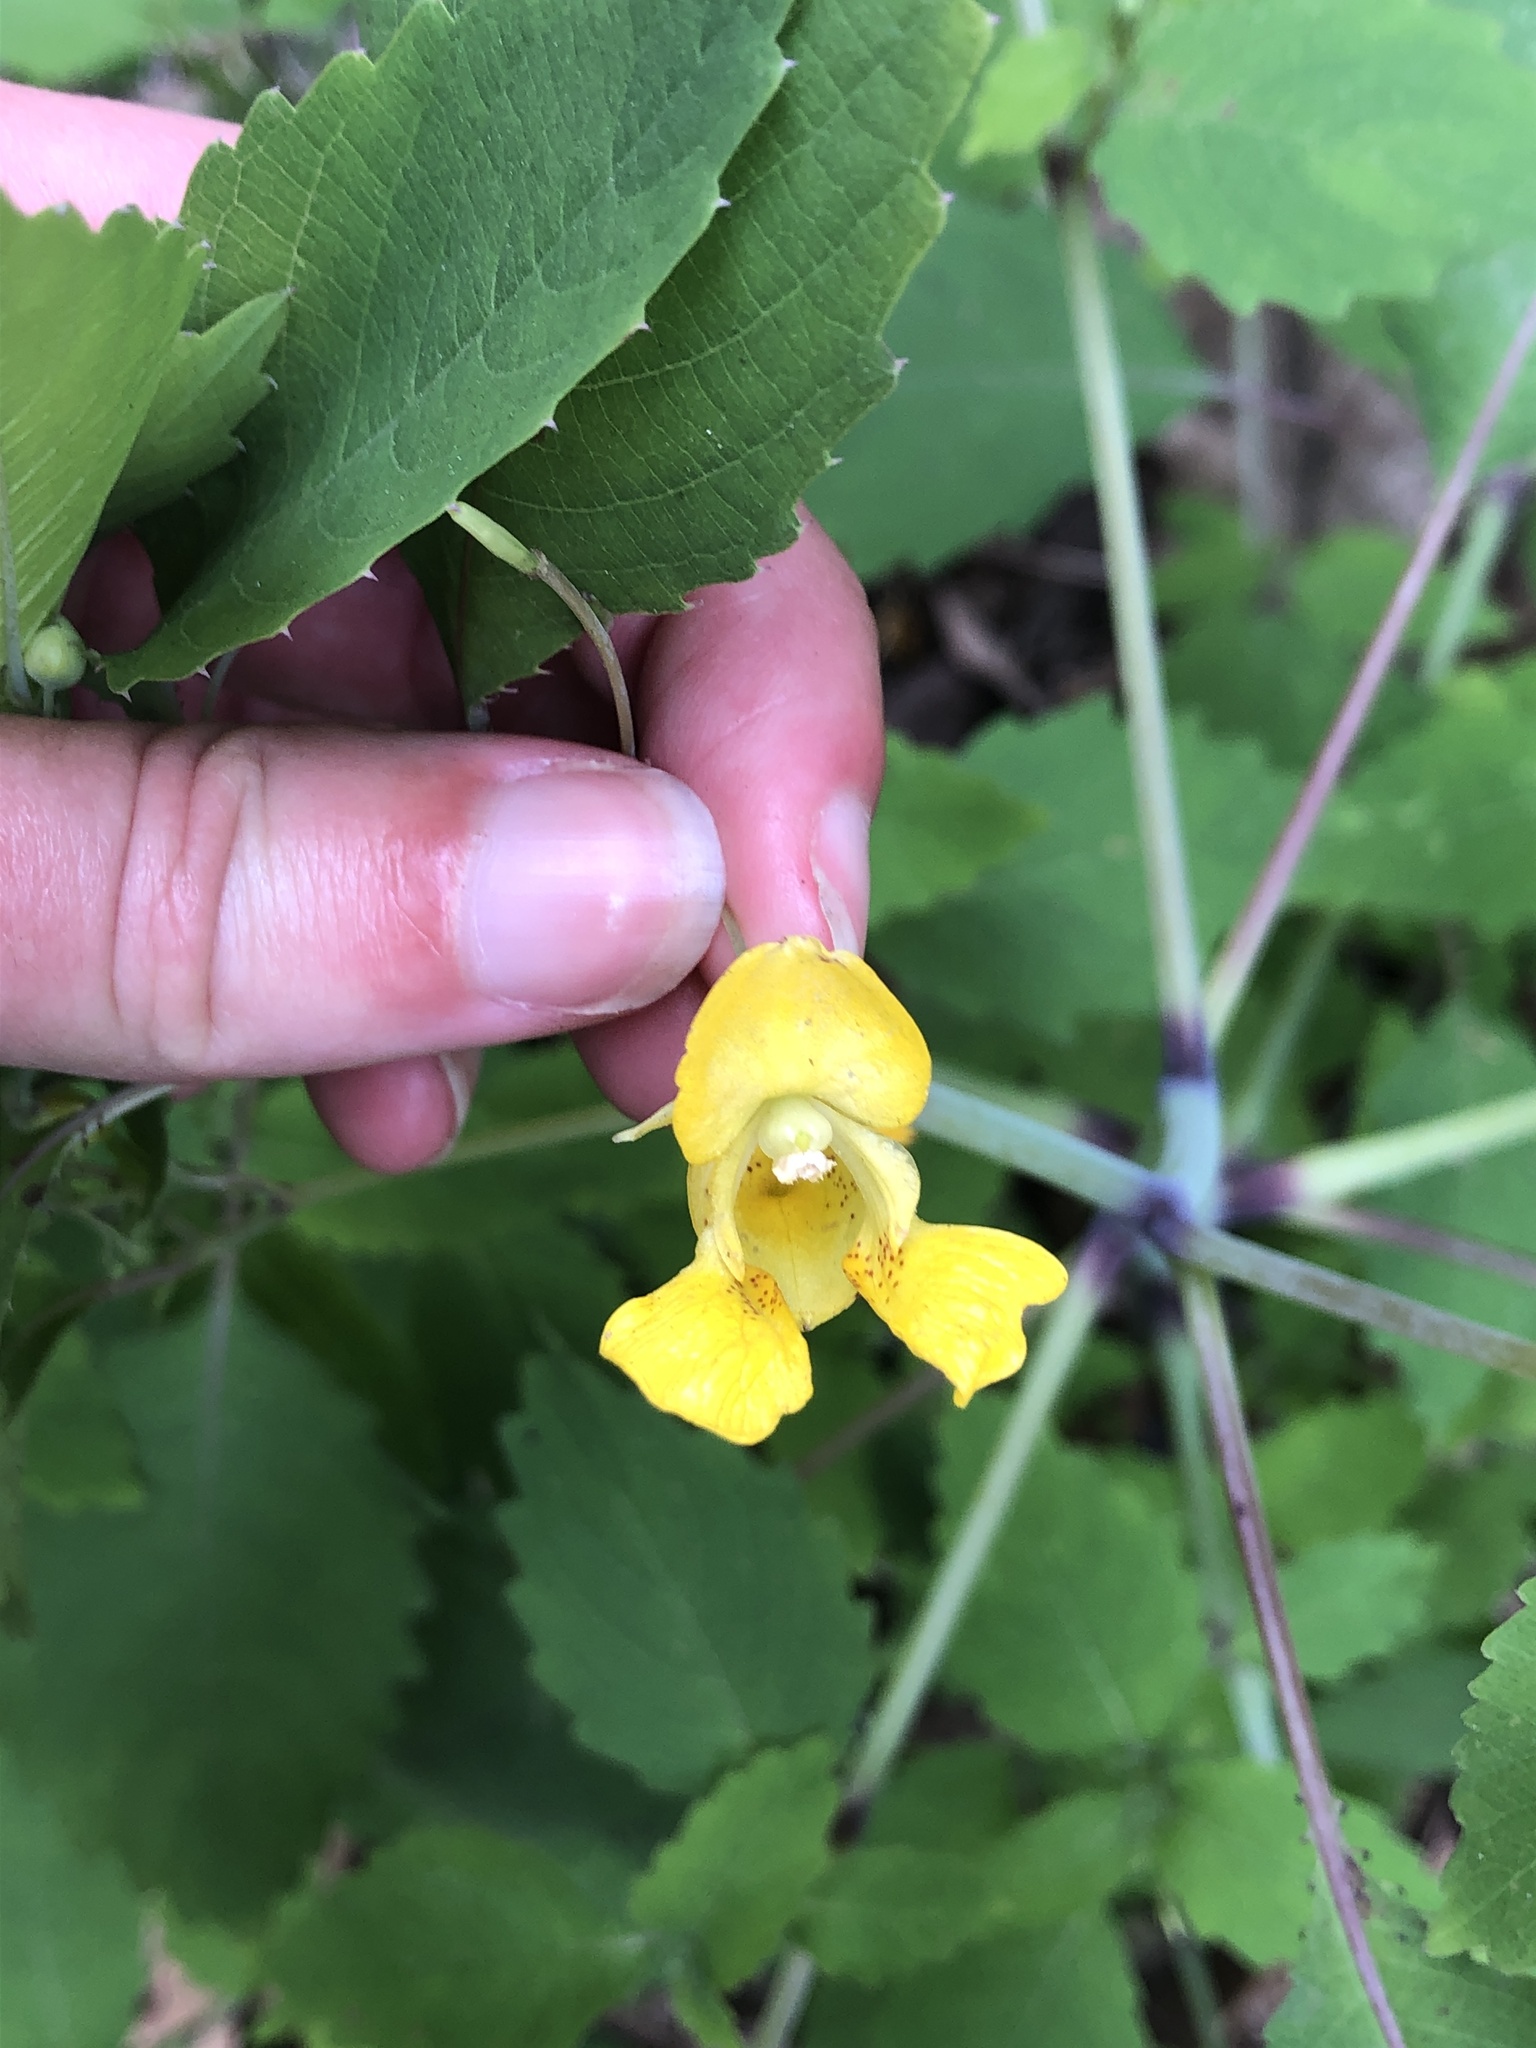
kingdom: Plantae
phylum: Tracheophyta
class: Magnoliopsida
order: Ericales
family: Balsaminaceae
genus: Impatiens
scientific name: Impatiens pallida
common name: Pale snapweed
